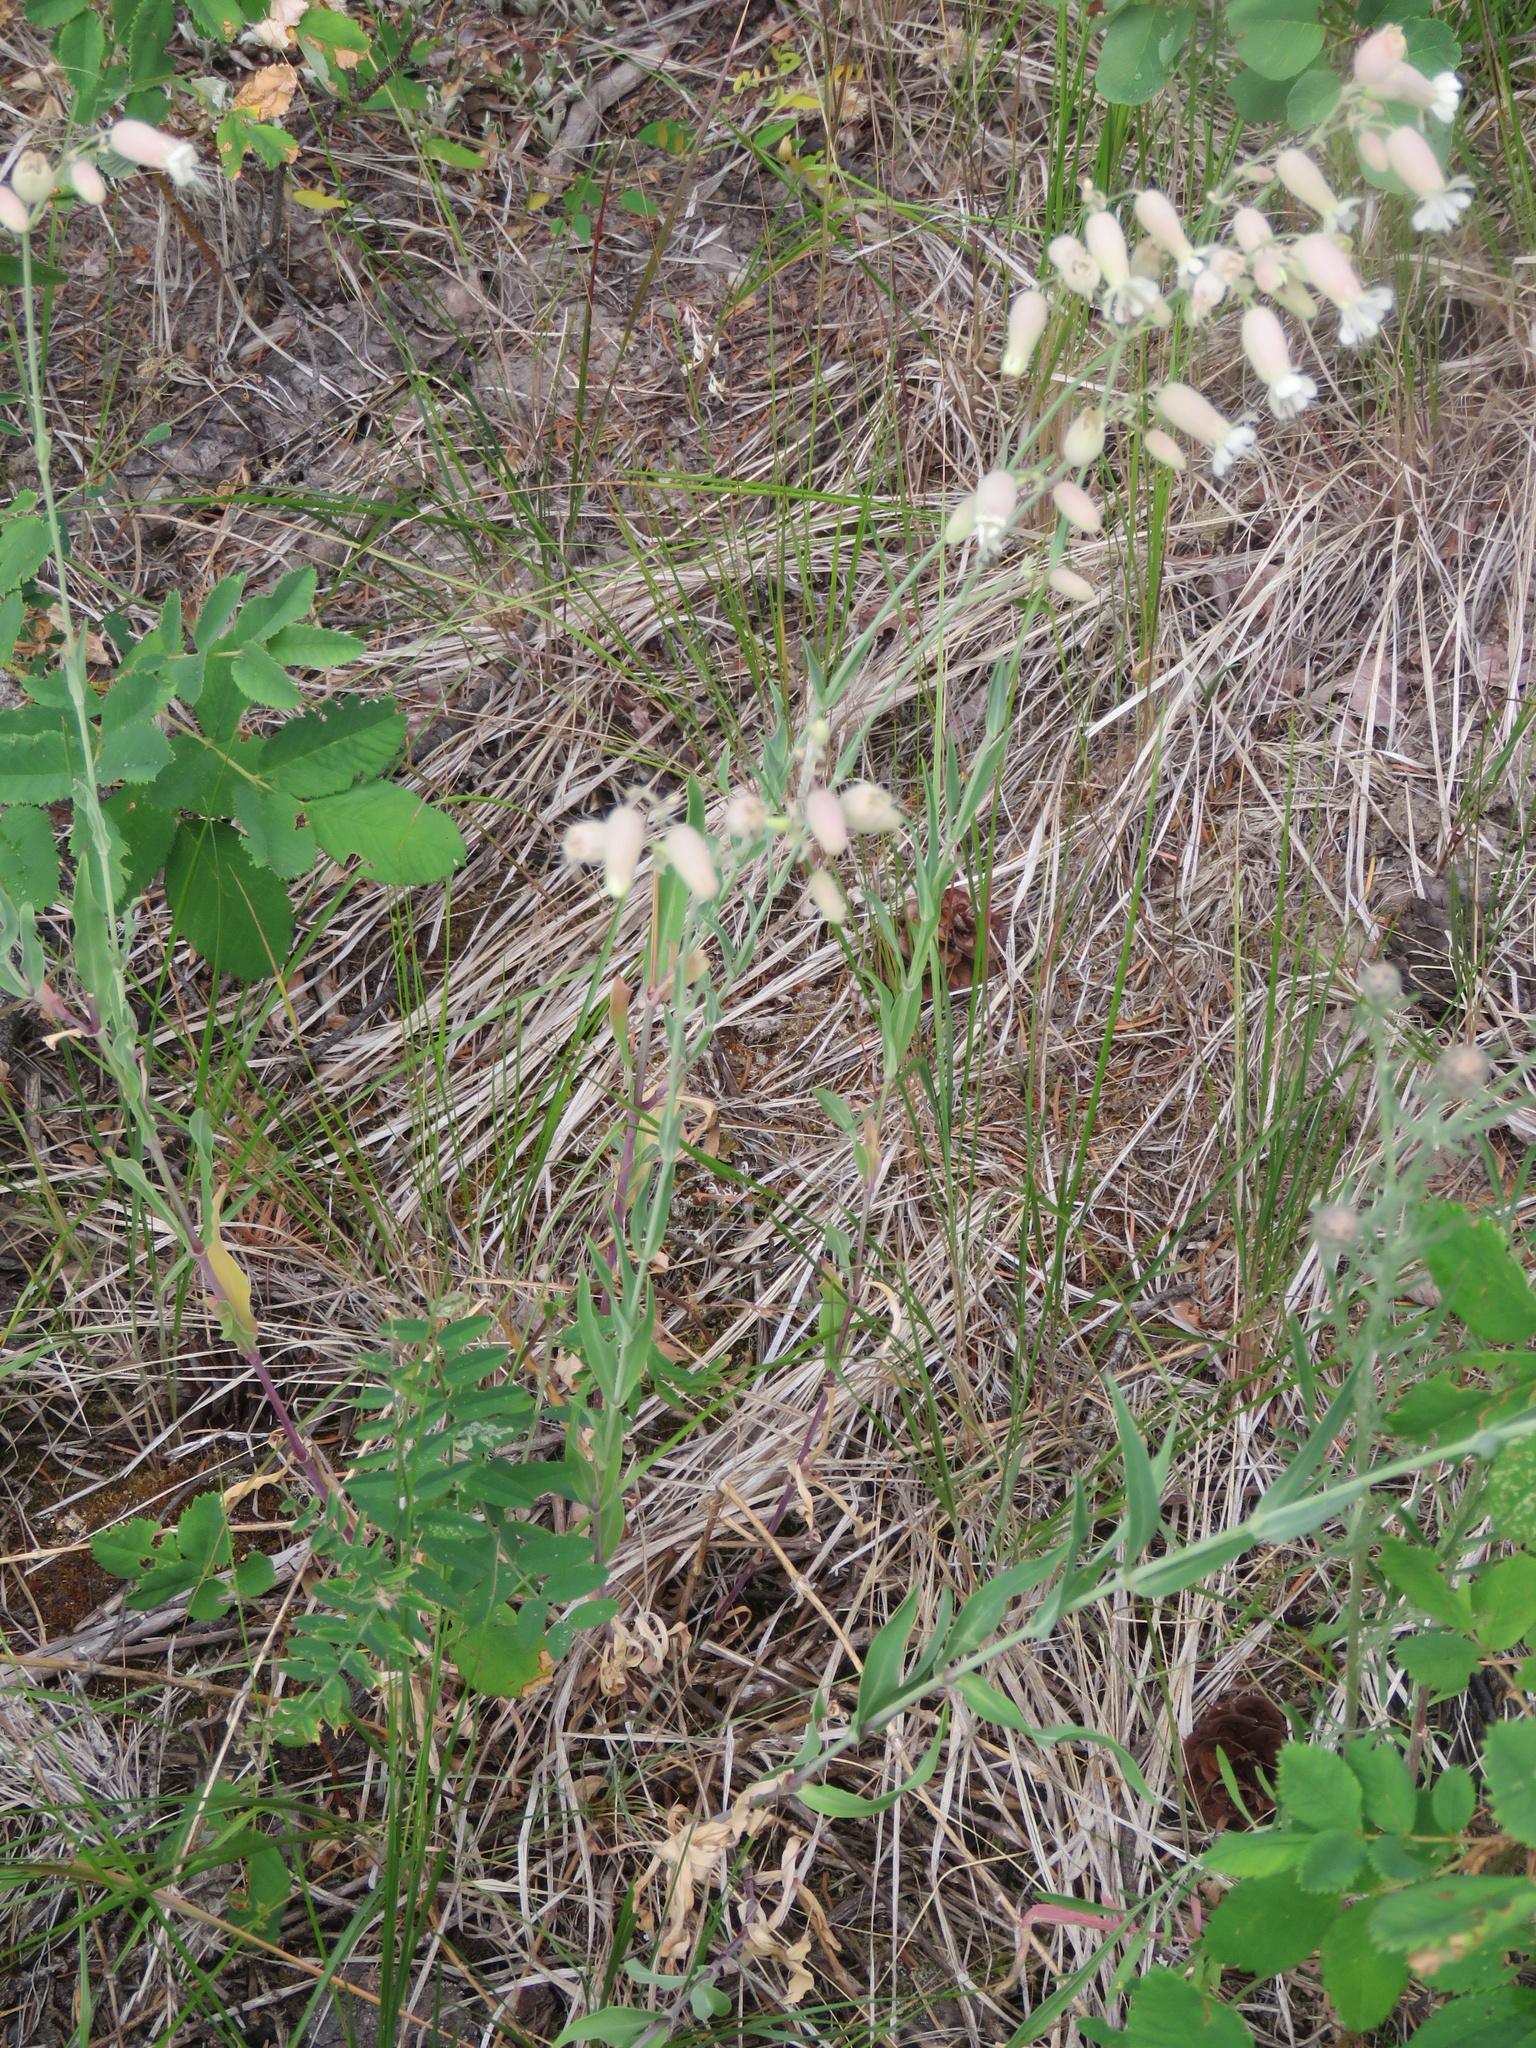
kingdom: Plantae
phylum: Tracheophyta
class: Magnoliopsida
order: Caryophyllales
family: Caryophyllaceae
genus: Silene
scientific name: Silene vulgaris
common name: Bladder campion
